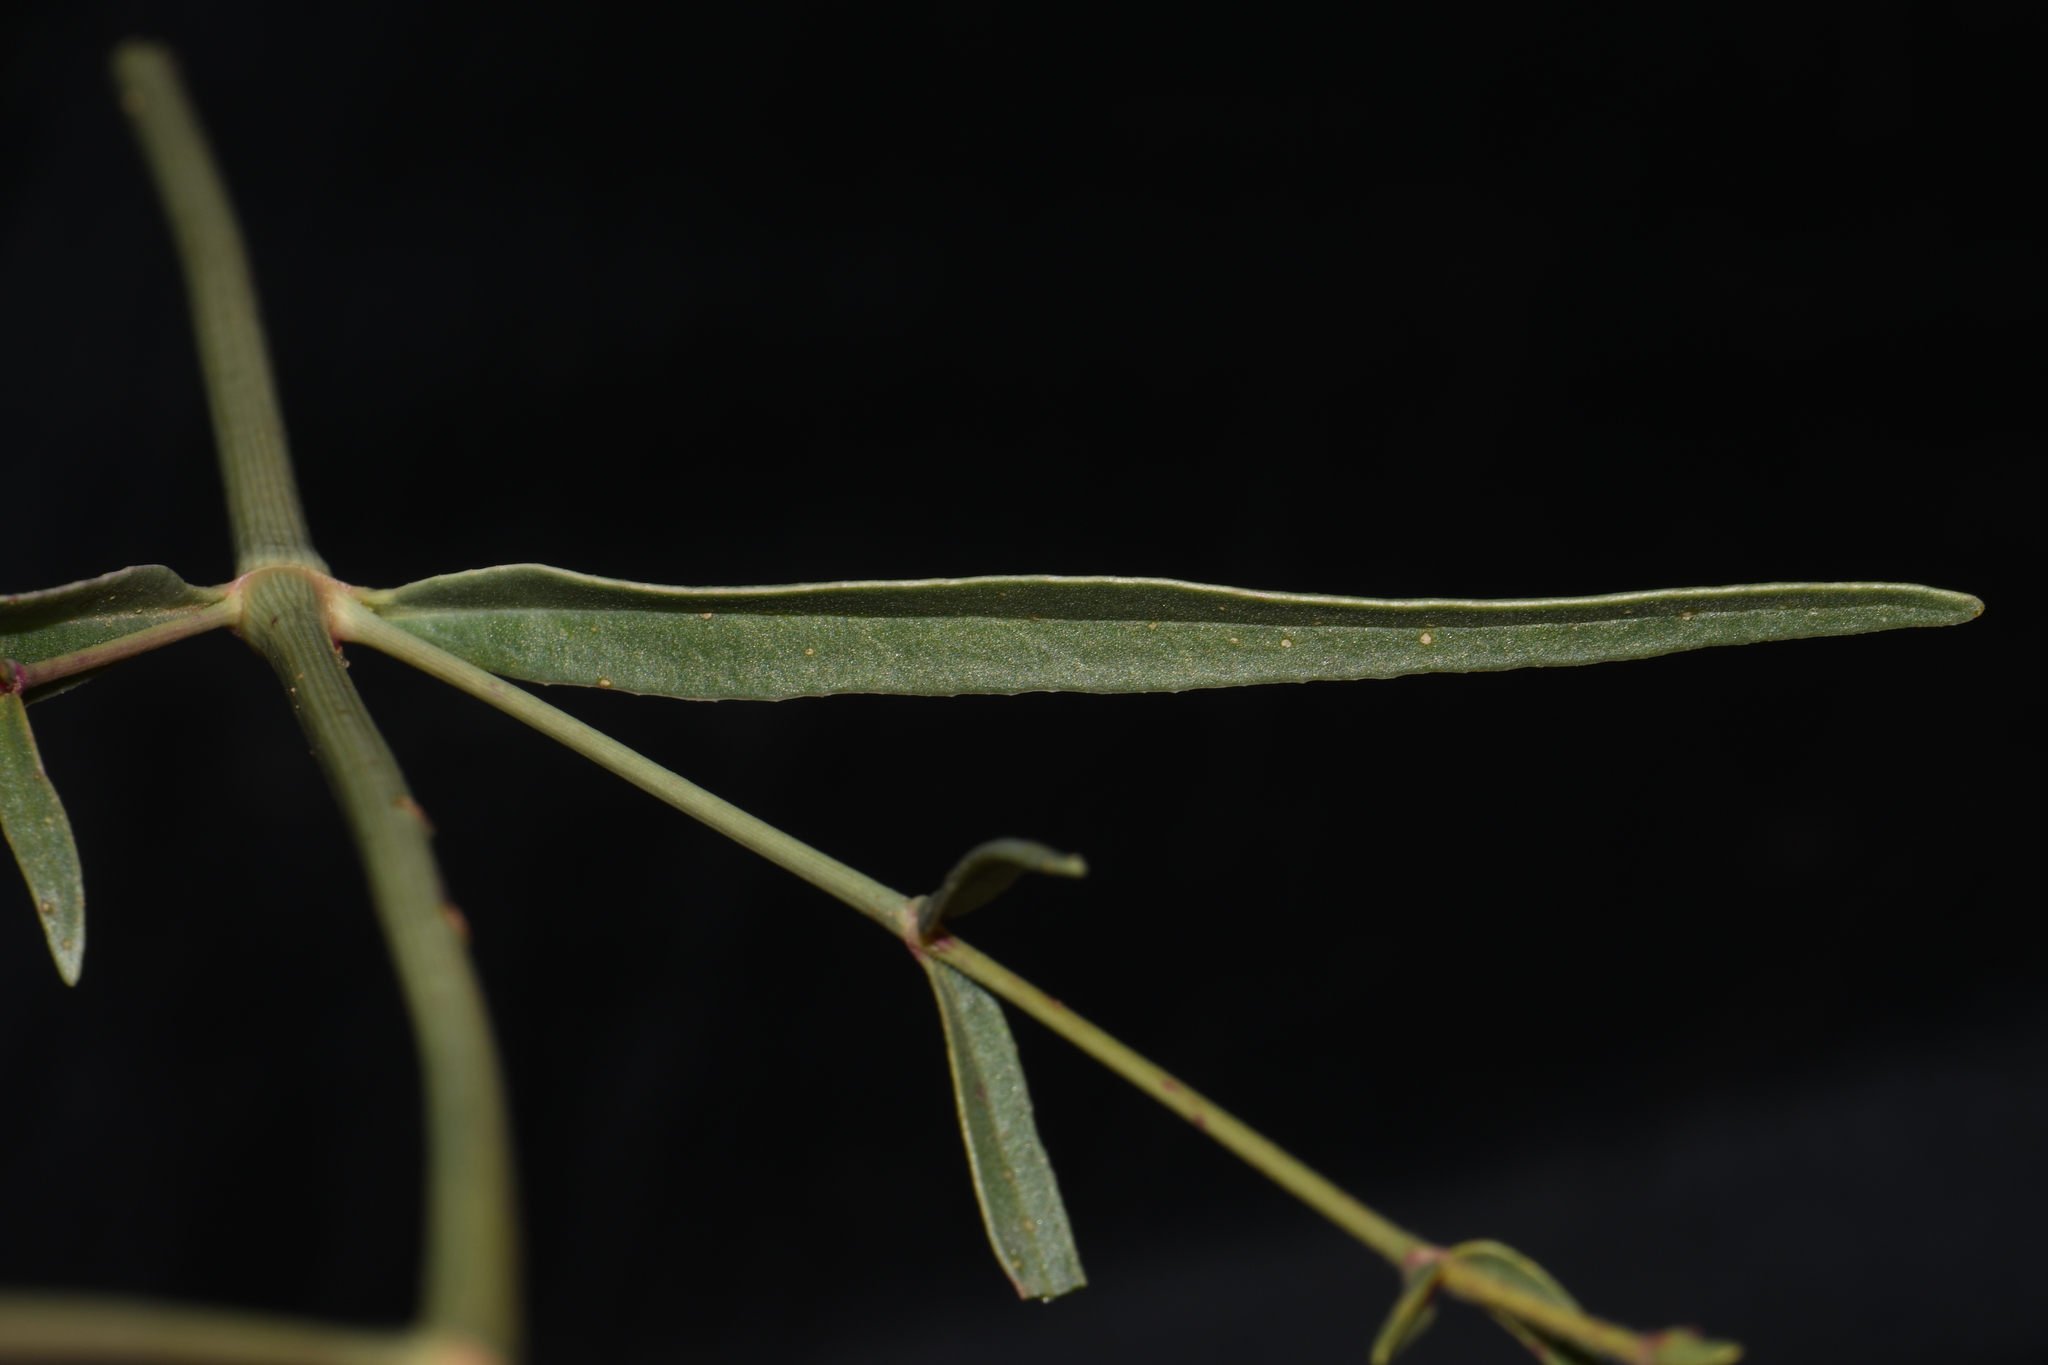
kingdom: Plantae
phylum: Tracheophyta
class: Magnoliopsida
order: Caryophyllales
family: Nyctaginaceae
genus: Mirabilis
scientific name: Mirabilis linearis
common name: Linear-leaved four-o'clock
